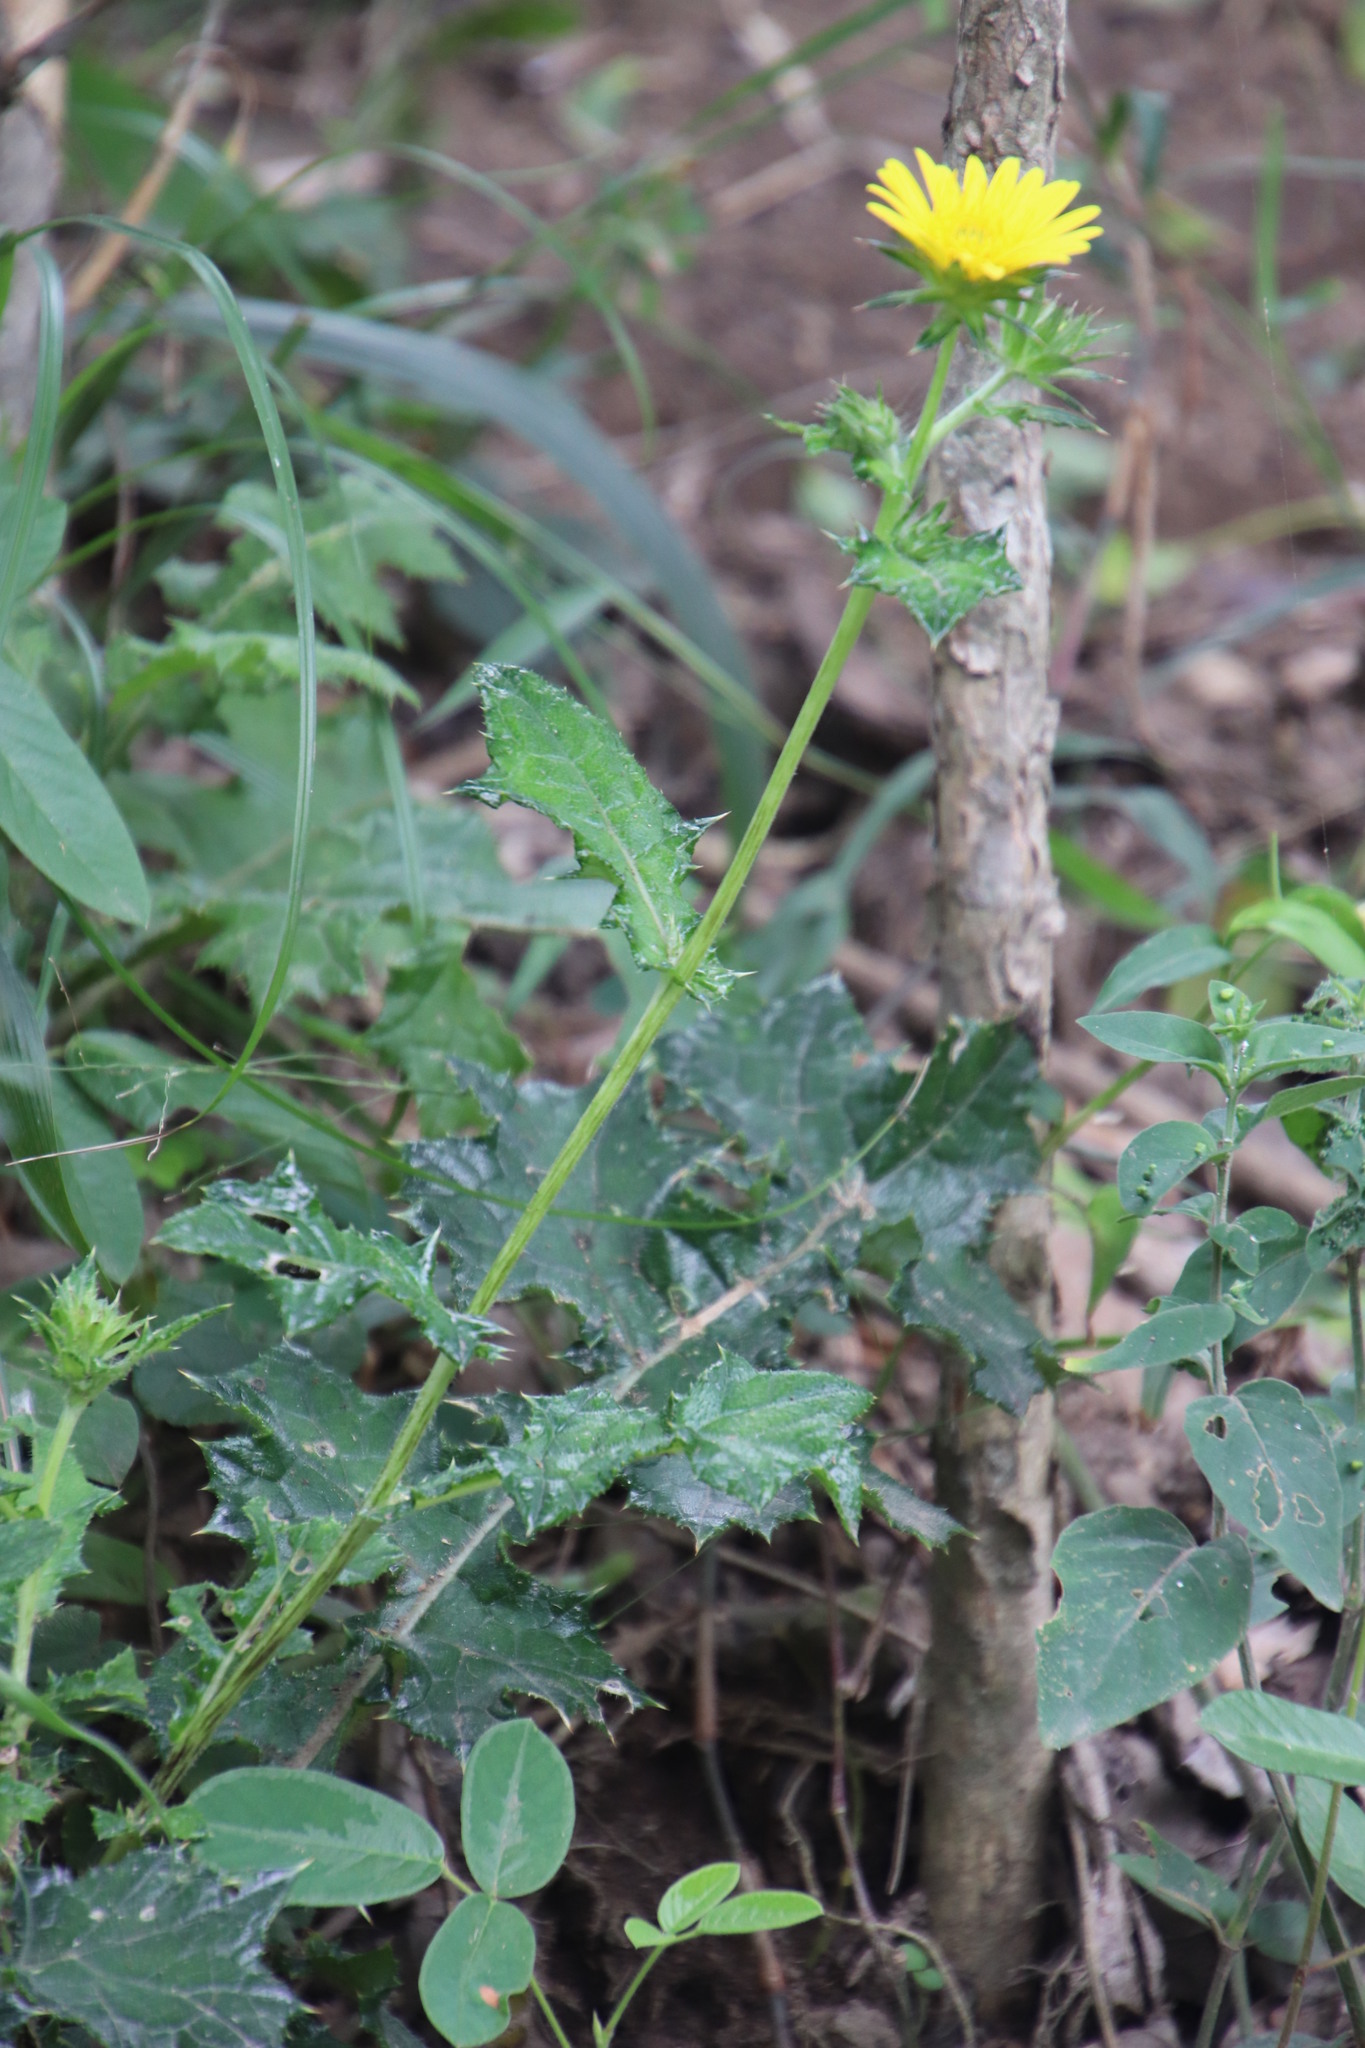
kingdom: Plantae
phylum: Tracheophyta
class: Magnoliopsida
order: Asterales
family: Asteraceae
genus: Berkheya
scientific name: Berkheya erysithales
